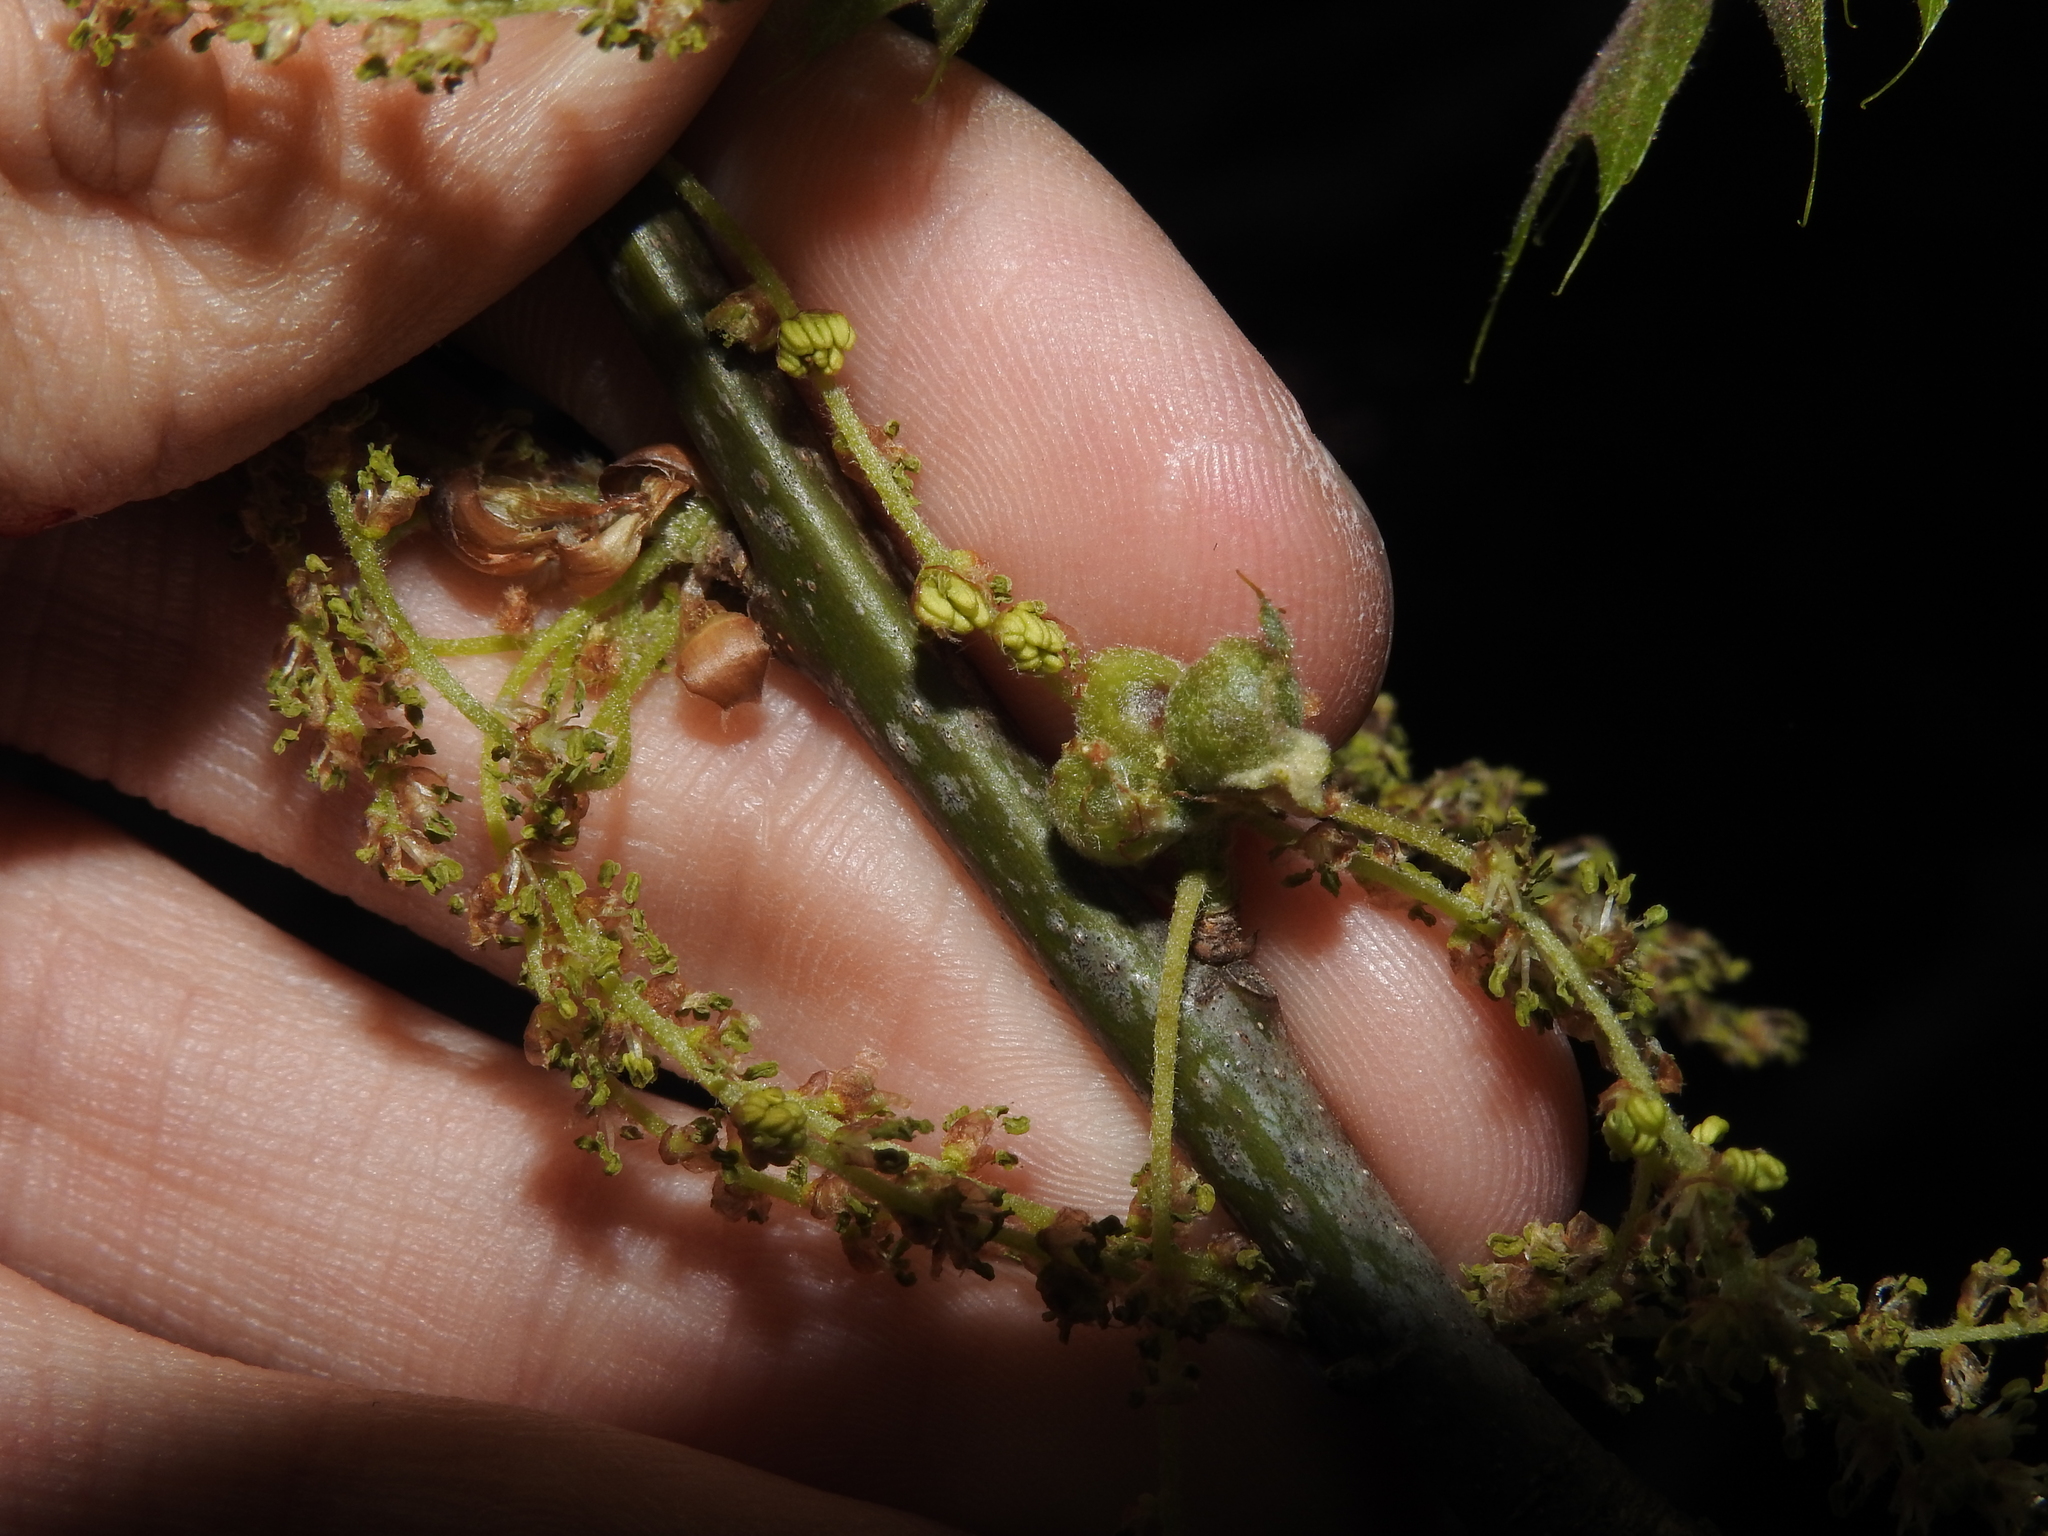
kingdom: Animalia
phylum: Arthropoda
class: Insecta
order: Hymenoptera
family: Cynipidae
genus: Dryocosmus
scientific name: Dryocosmus quercuspalustris
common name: Succulent oak gall wasp
